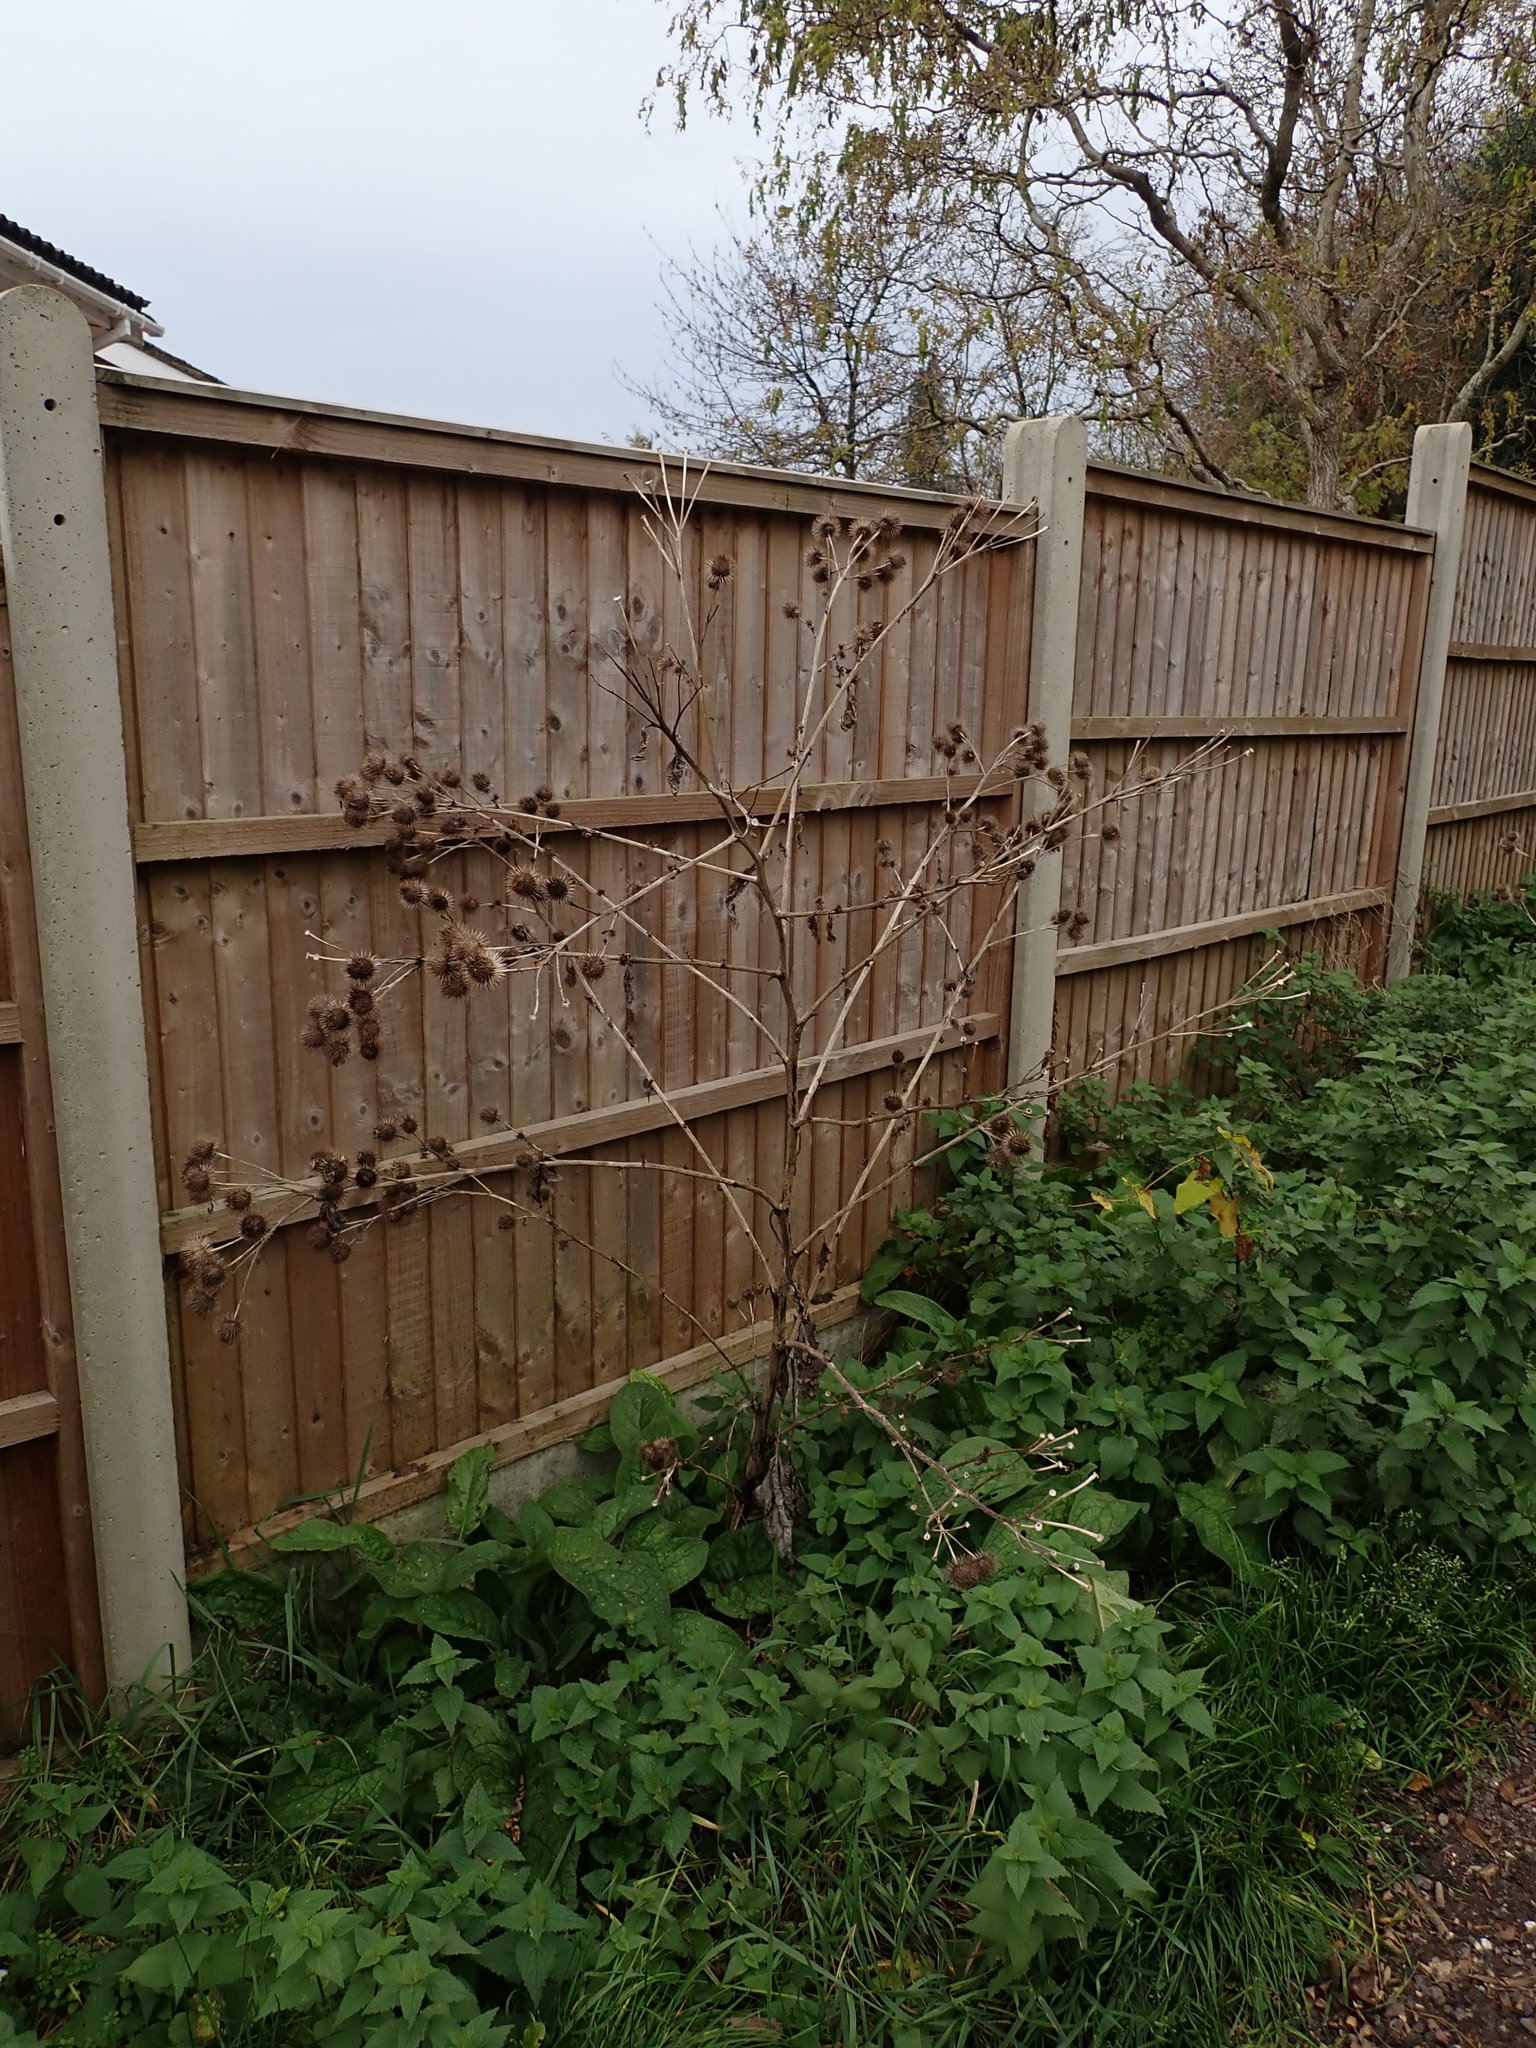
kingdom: Plantae
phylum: Tracheophyta
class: Magnoliopsida
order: Asterales
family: Asteraceae
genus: Arctium
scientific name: Arctium lappa
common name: Greater burdock
